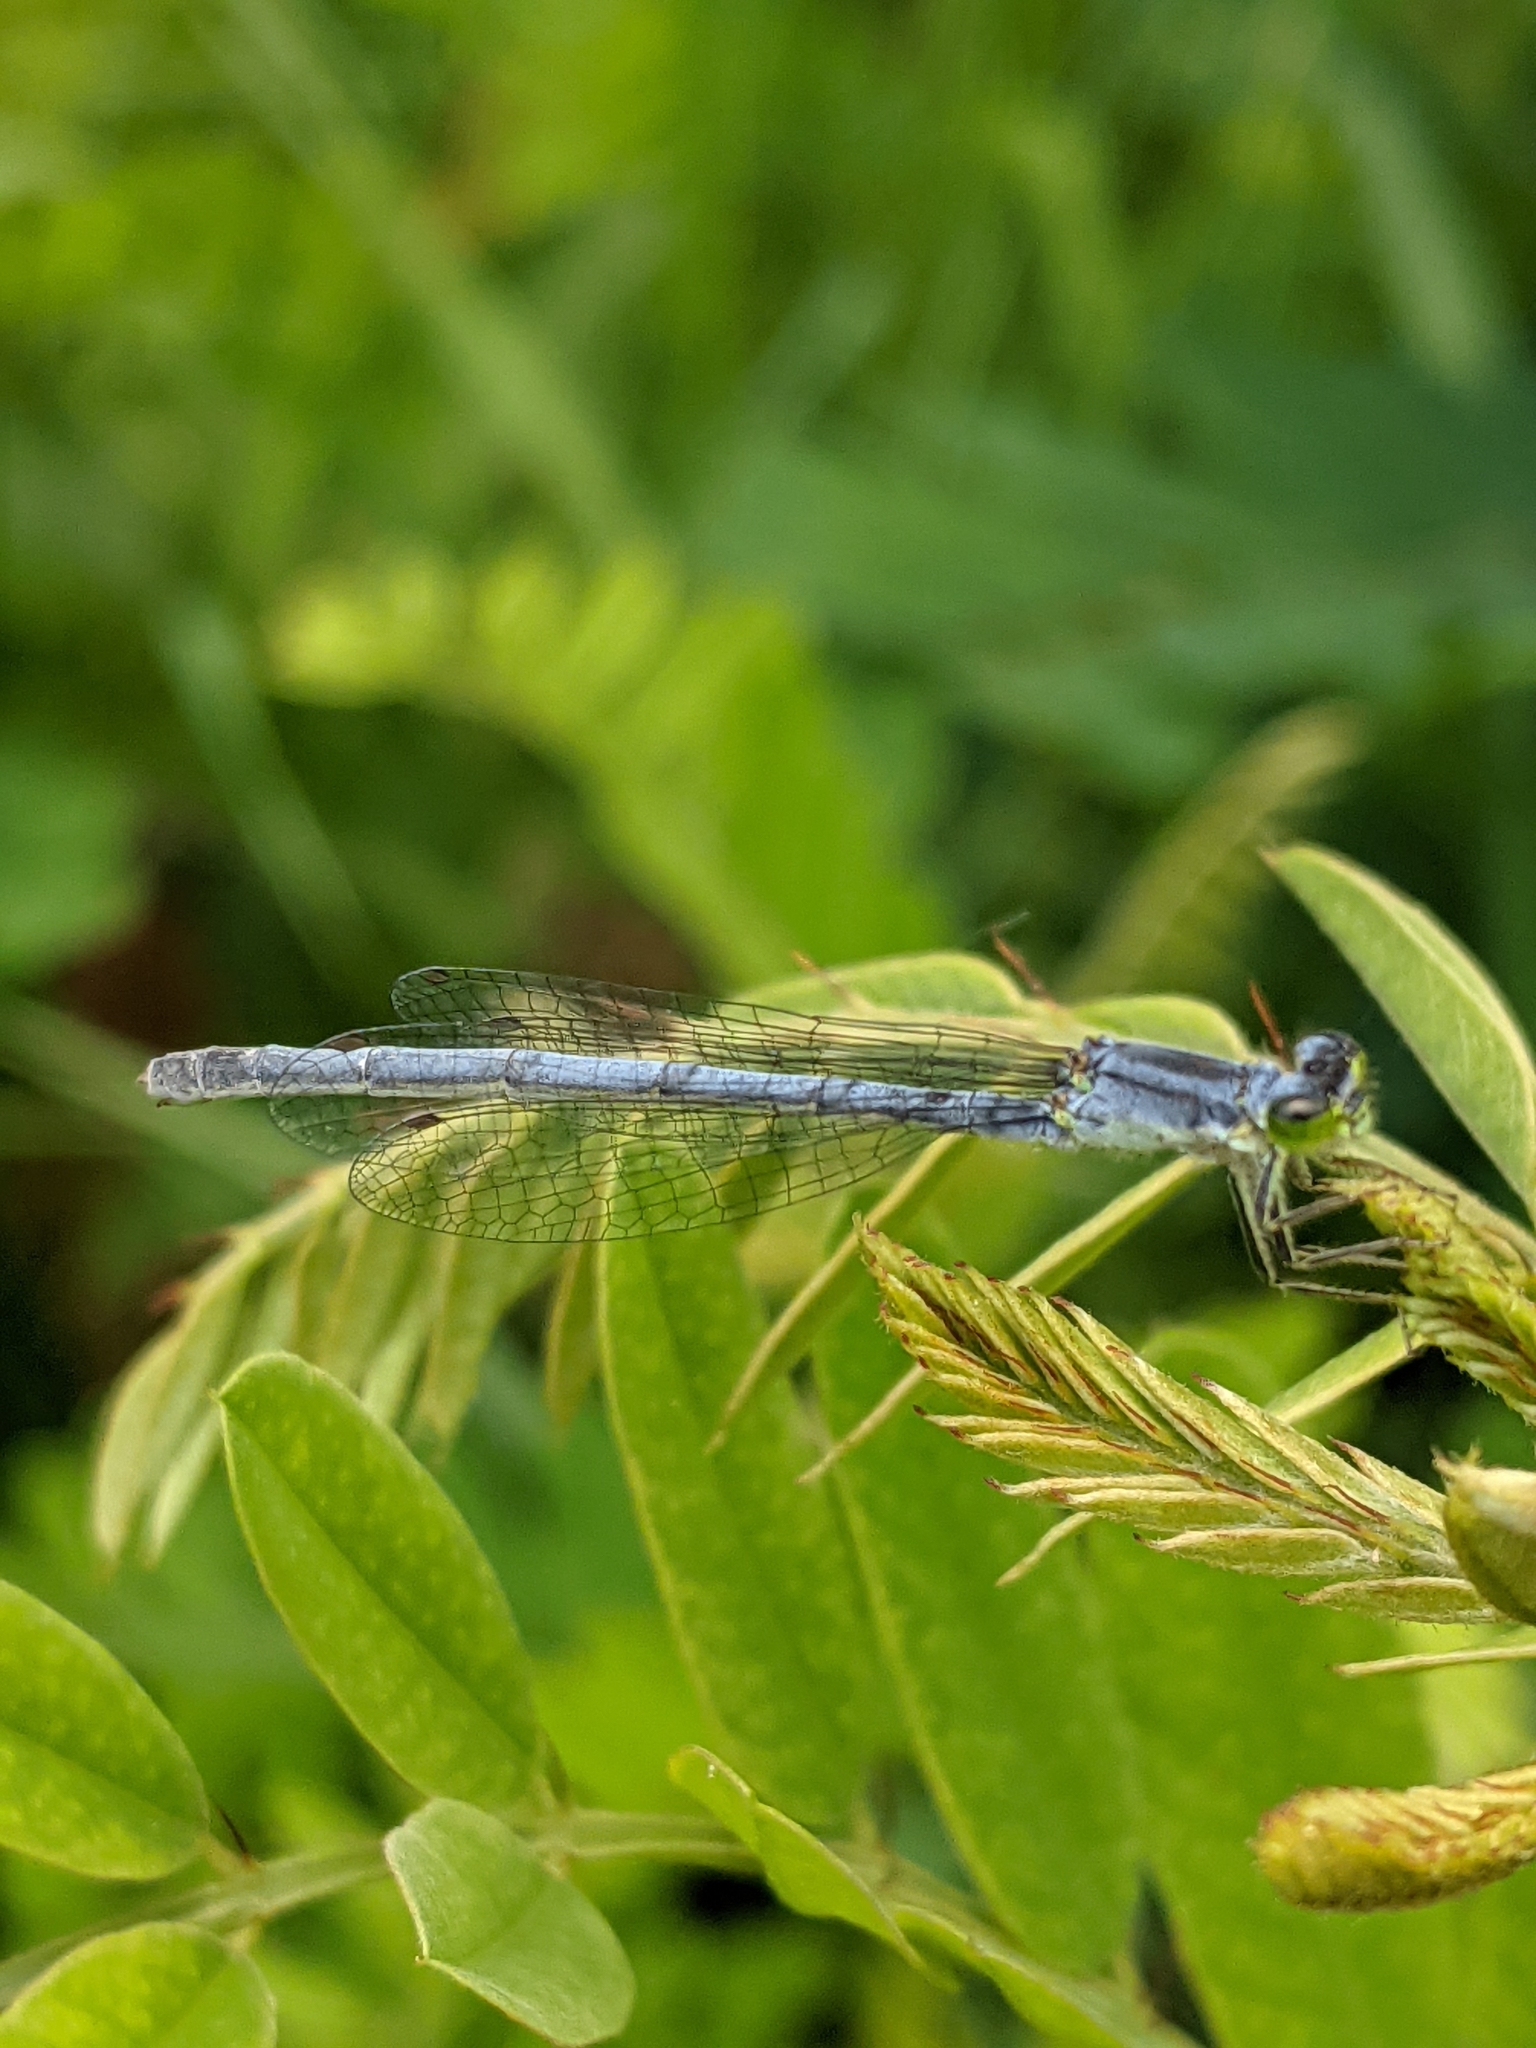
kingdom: Animalia
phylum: Arthropoda
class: Insecta
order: Odonata
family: Coenagrionidae
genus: Ischnura
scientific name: Ischnura verticalis
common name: Eastern forktail
